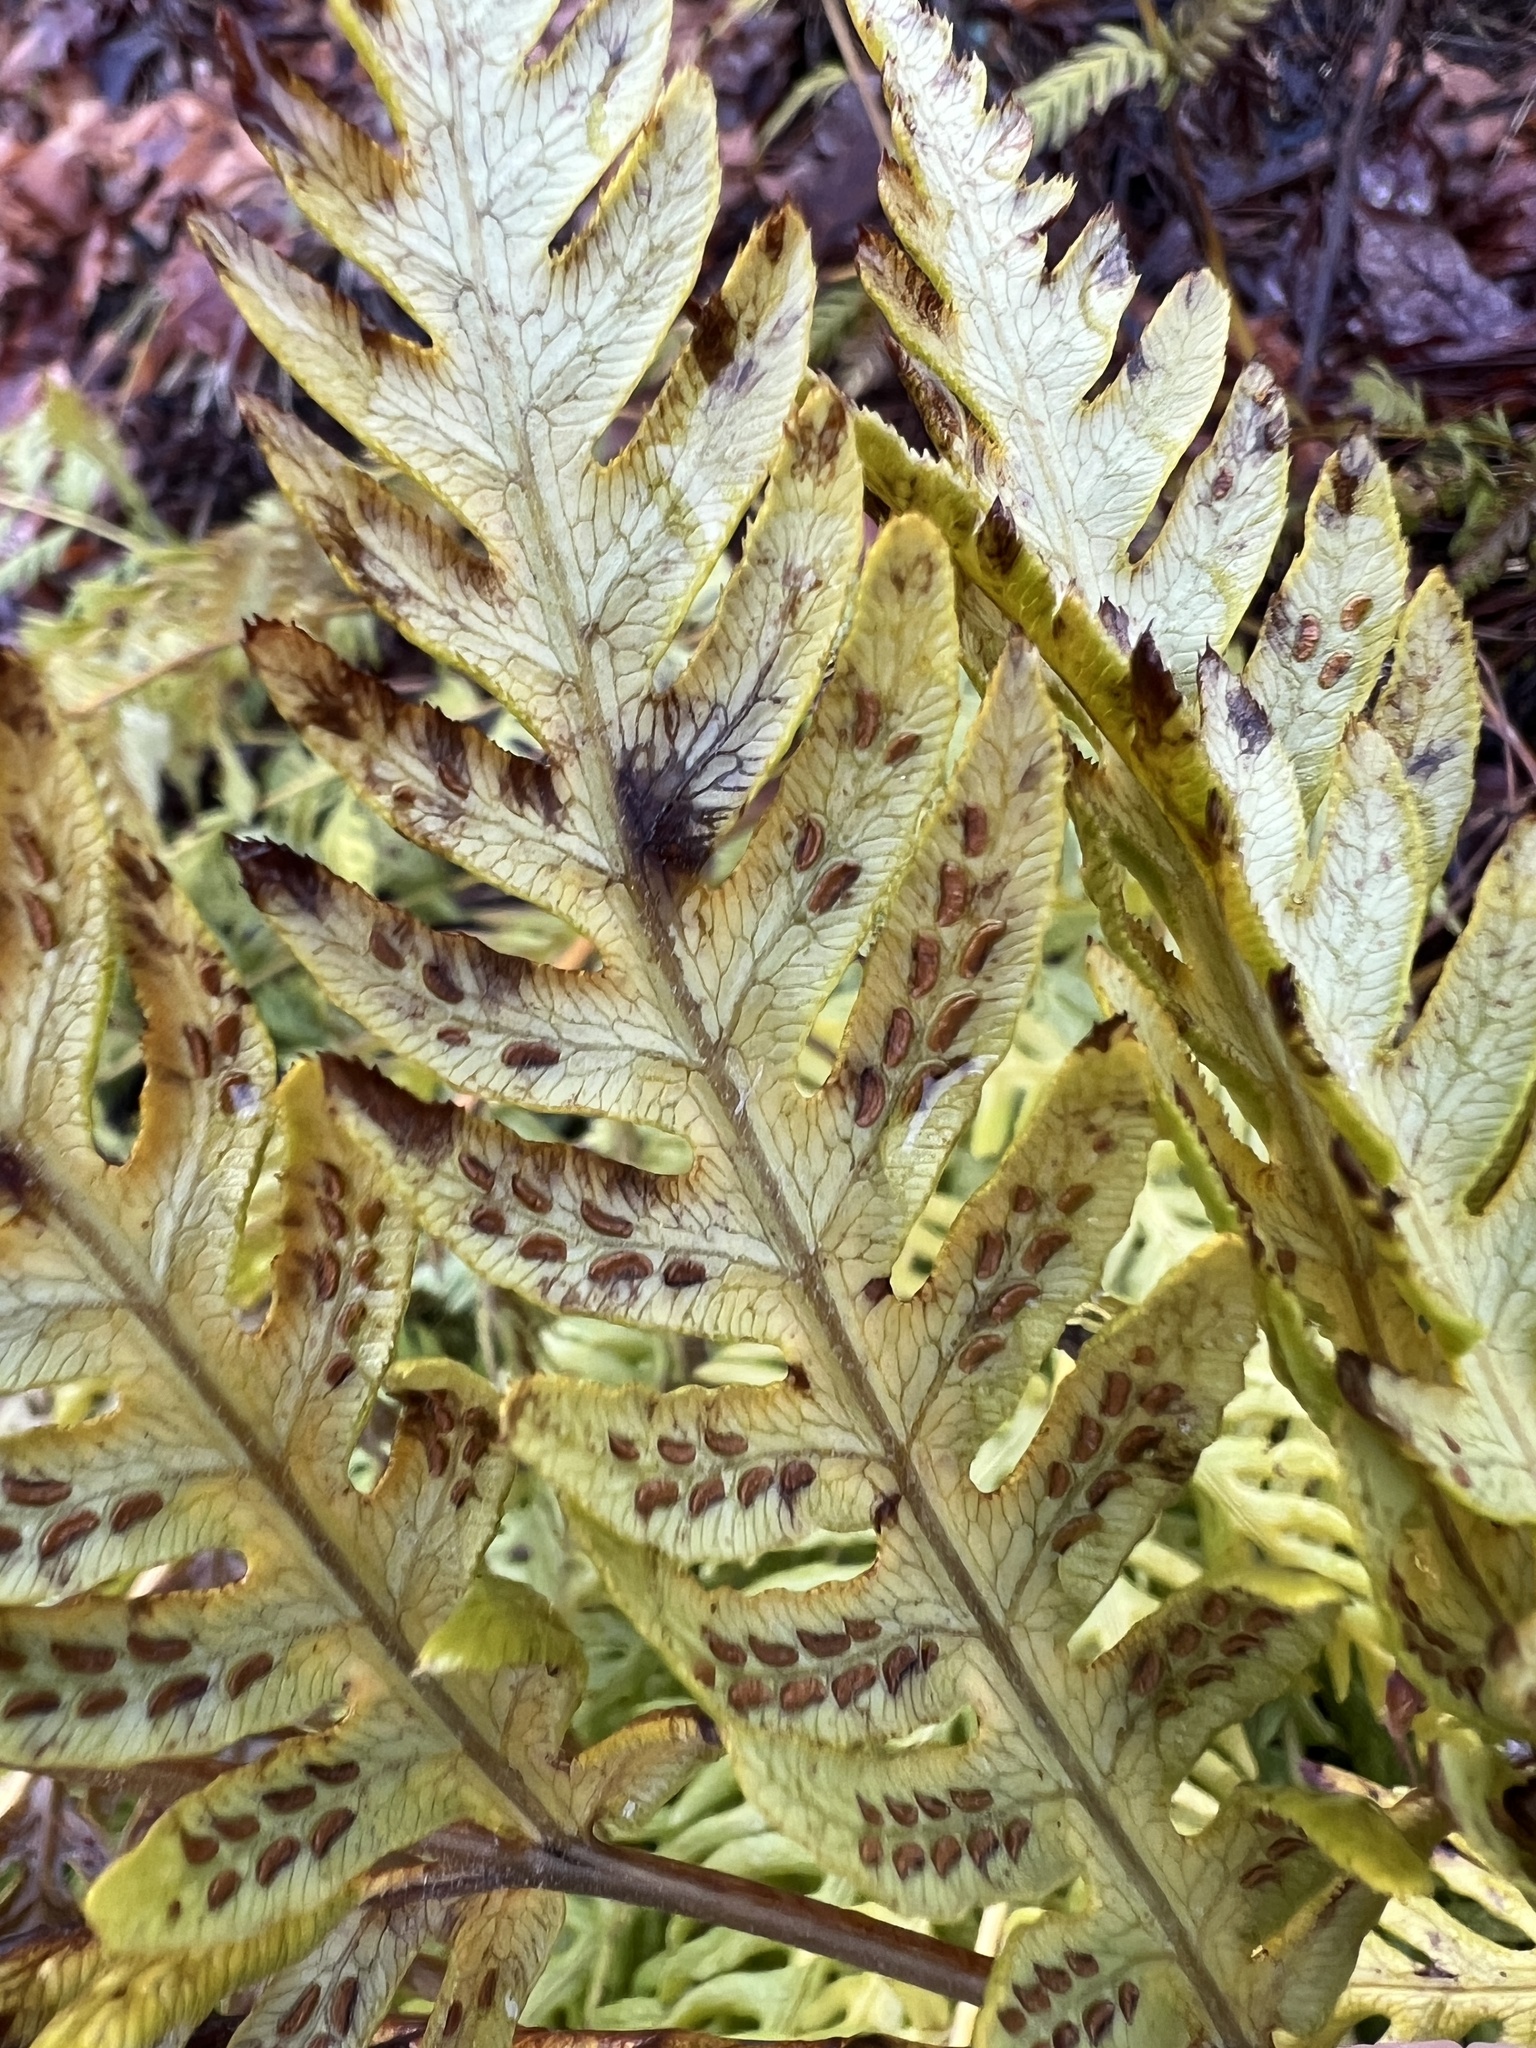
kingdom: Plantae
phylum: Tracheophyta
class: Polypodiopsida
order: Polypodiales
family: Blechnaceae
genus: Woodwardia
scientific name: Woodwardia fimbriata
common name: Giant chain fern
